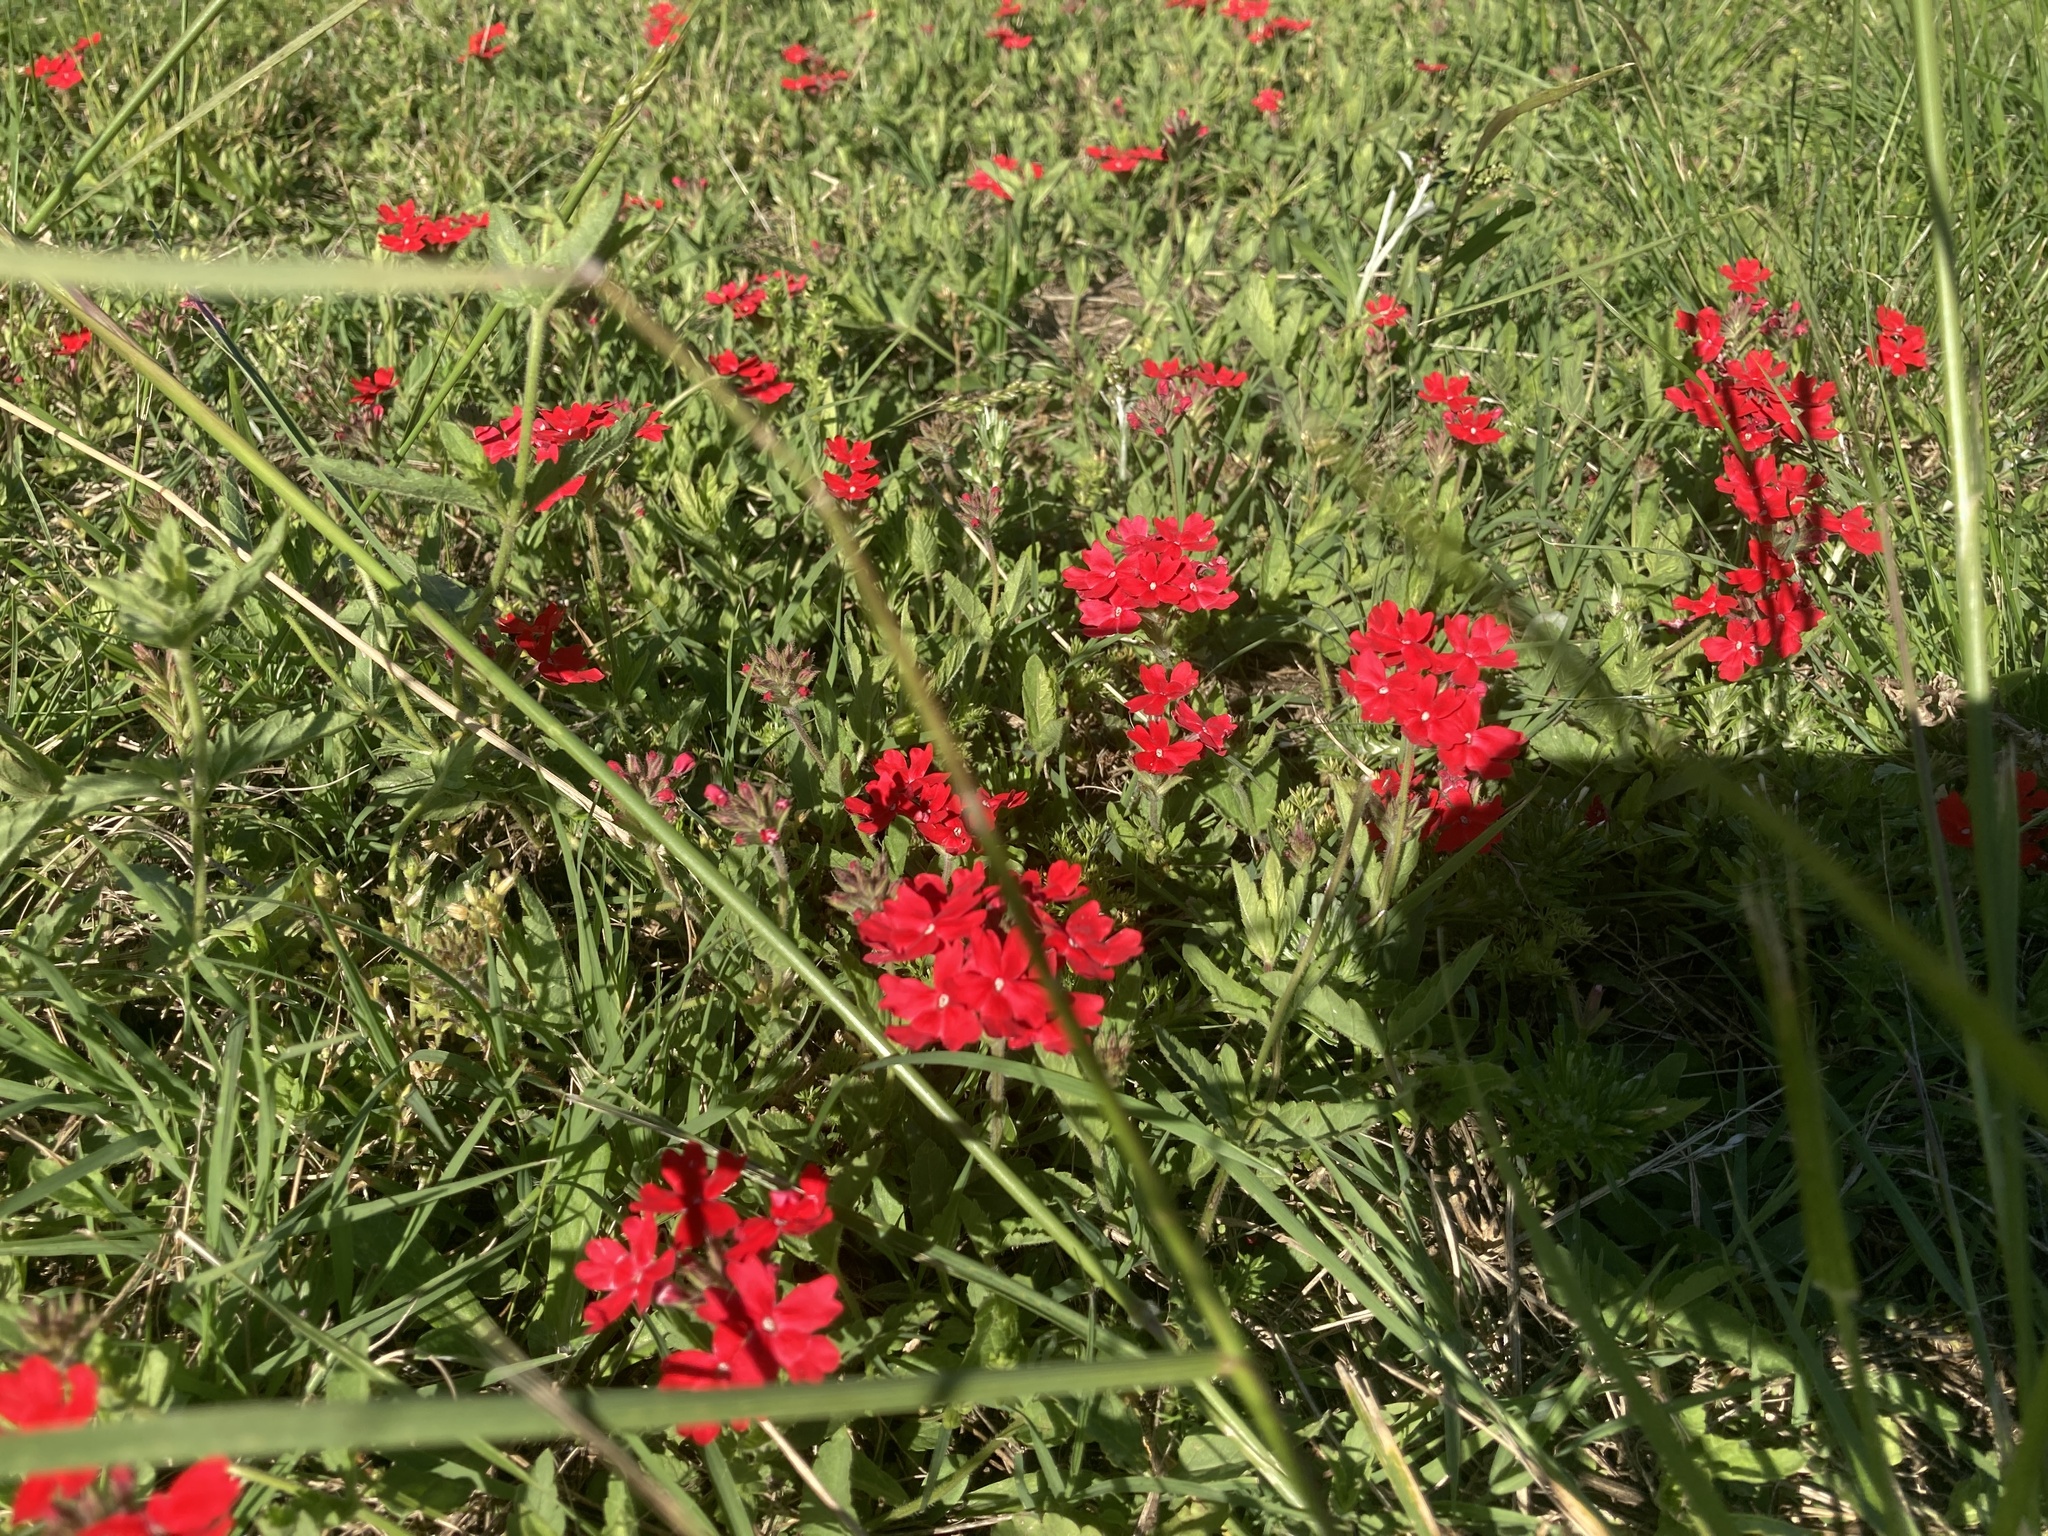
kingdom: Plantae
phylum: Tracheophyta
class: Magnoliopsida
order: Lamiales
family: Verbenaceae
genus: Verbena
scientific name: Verbena peruviana
